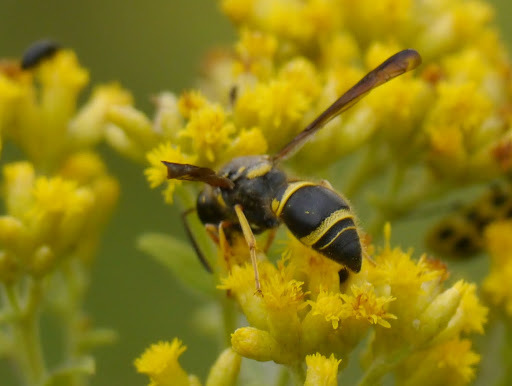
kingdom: Animalia
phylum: Arthropoda
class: Insecta
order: Hymenoptera
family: Vespidae
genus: Ancistrocerus
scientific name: Ancistrocerus campestris
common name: Smiling mason wasp
